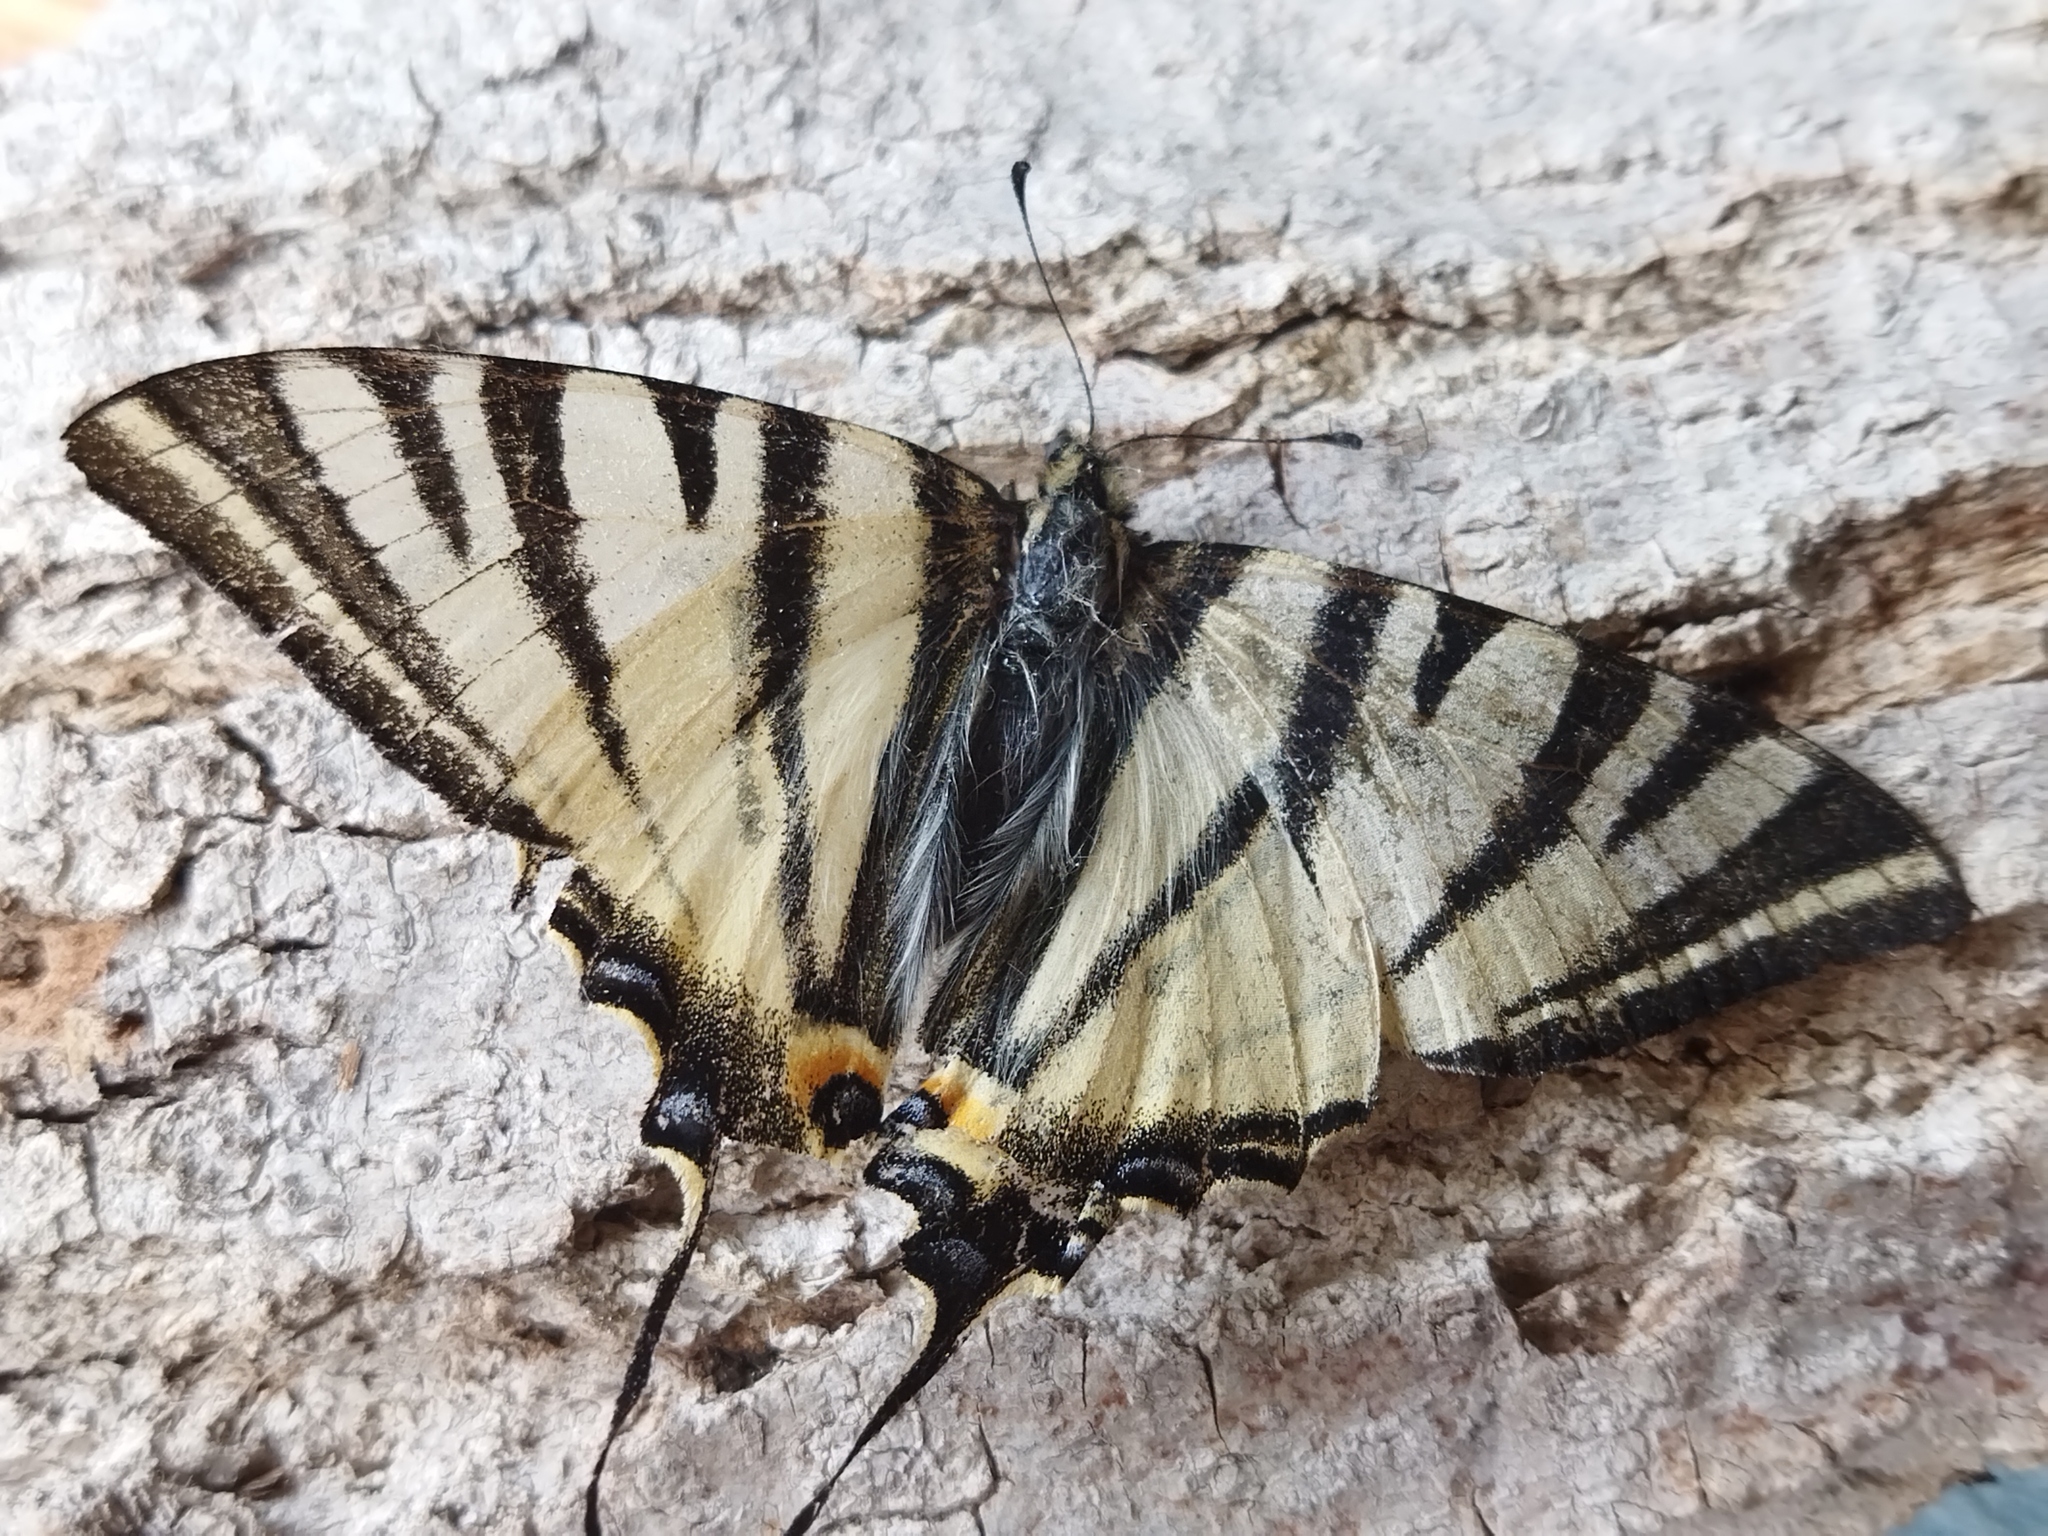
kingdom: Animalia
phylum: Arthropoda
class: Insecta
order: Lepidoptera
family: Papilionidae
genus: Iphiclides
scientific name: Iphiclides podalirius
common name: Scarce swallowtail
